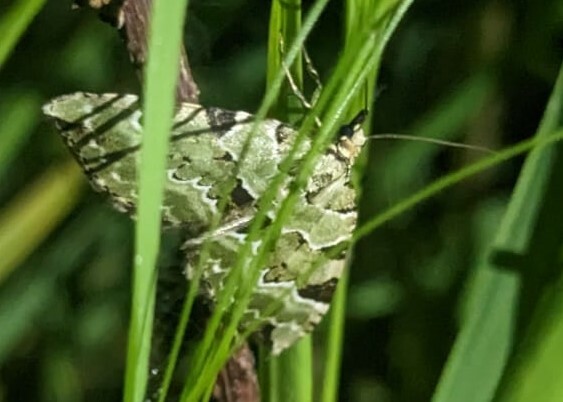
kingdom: Animalia
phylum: Arthropoda
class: Insecta
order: Lepidoptera
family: Geometridae
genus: Colostygia
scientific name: Colostygia pectinataria
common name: Green carpet
